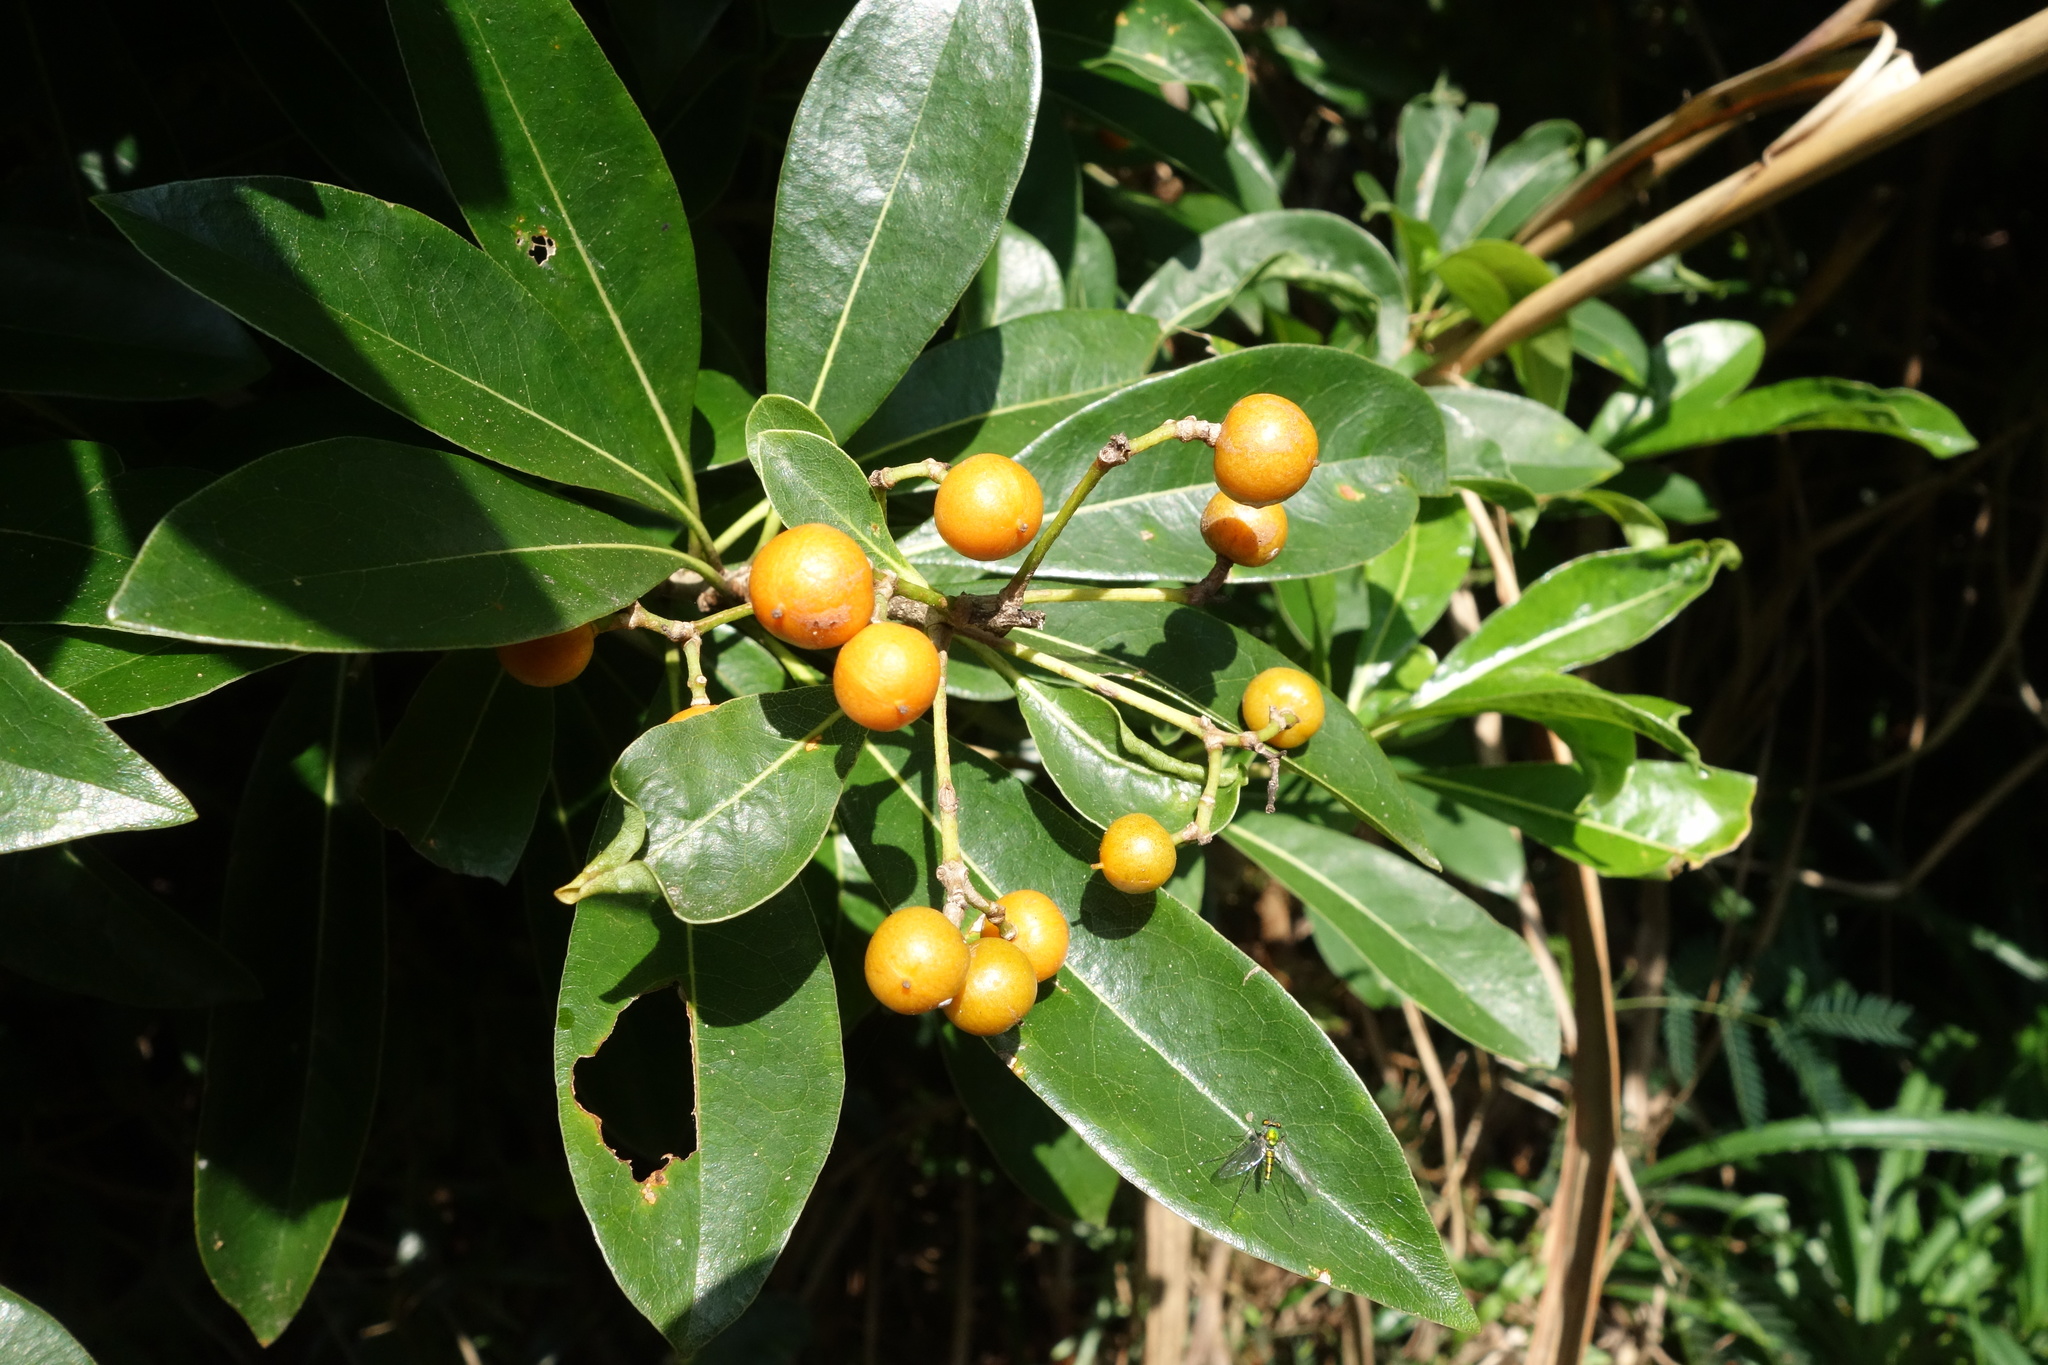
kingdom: Plantae
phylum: Tracheophyta
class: Magnoliopsida
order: Apiales
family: Pittosporaceae
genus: Pittosporum
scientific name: Pittosporum pentandrum
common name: Taiwanese cheesewood
